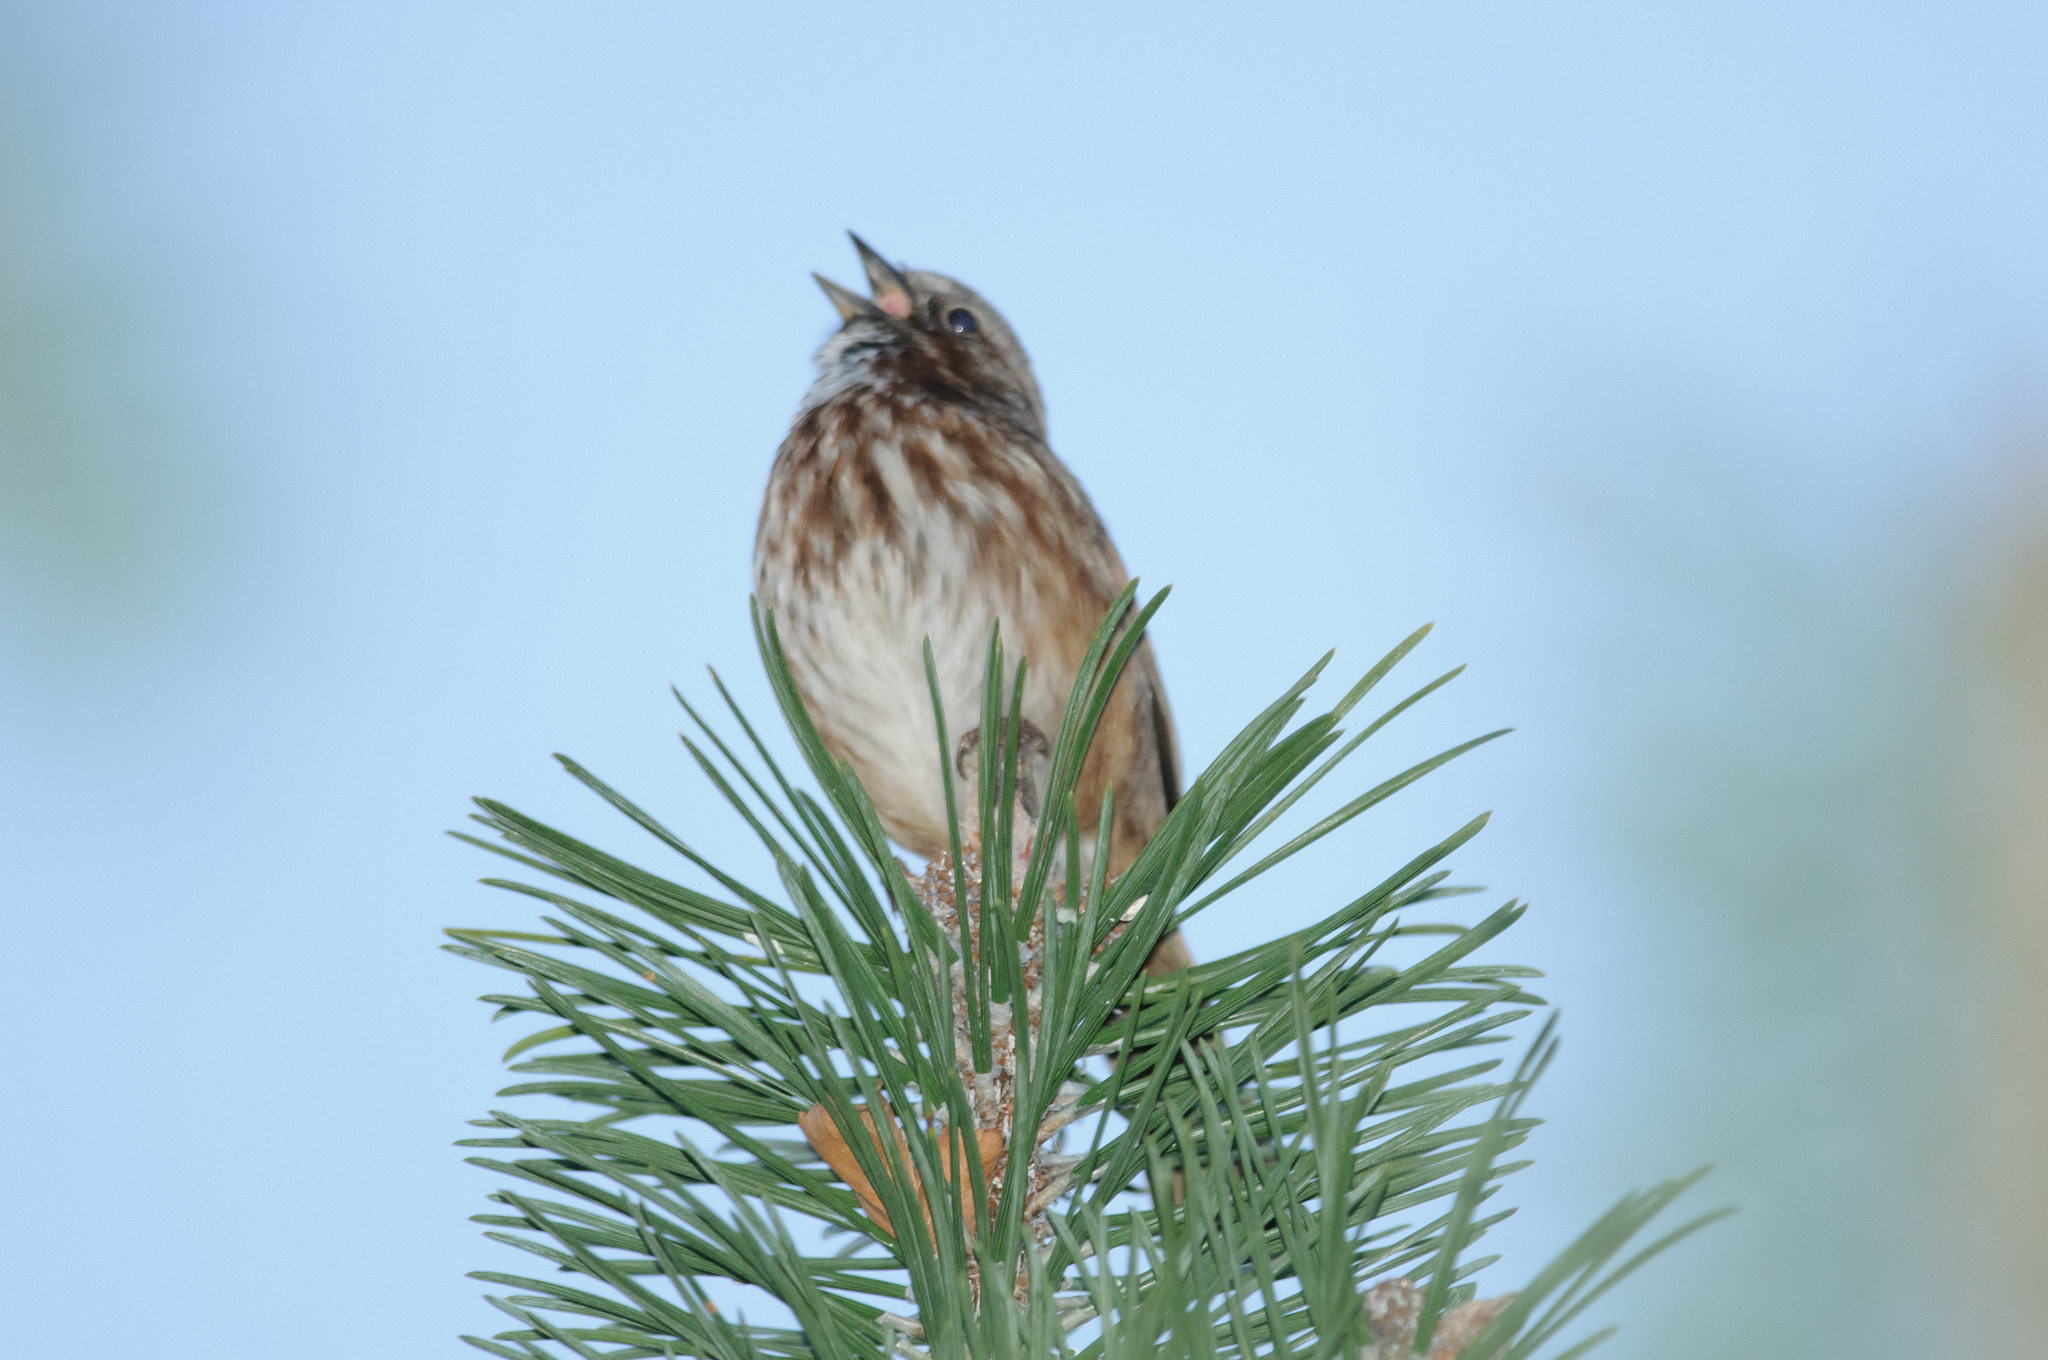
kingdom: Animalia
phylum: Chordata
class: Aves
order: Passeriformes
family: Passerellidae
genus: Melospiza
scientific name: Melospiza melodia
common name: Song sparrow
